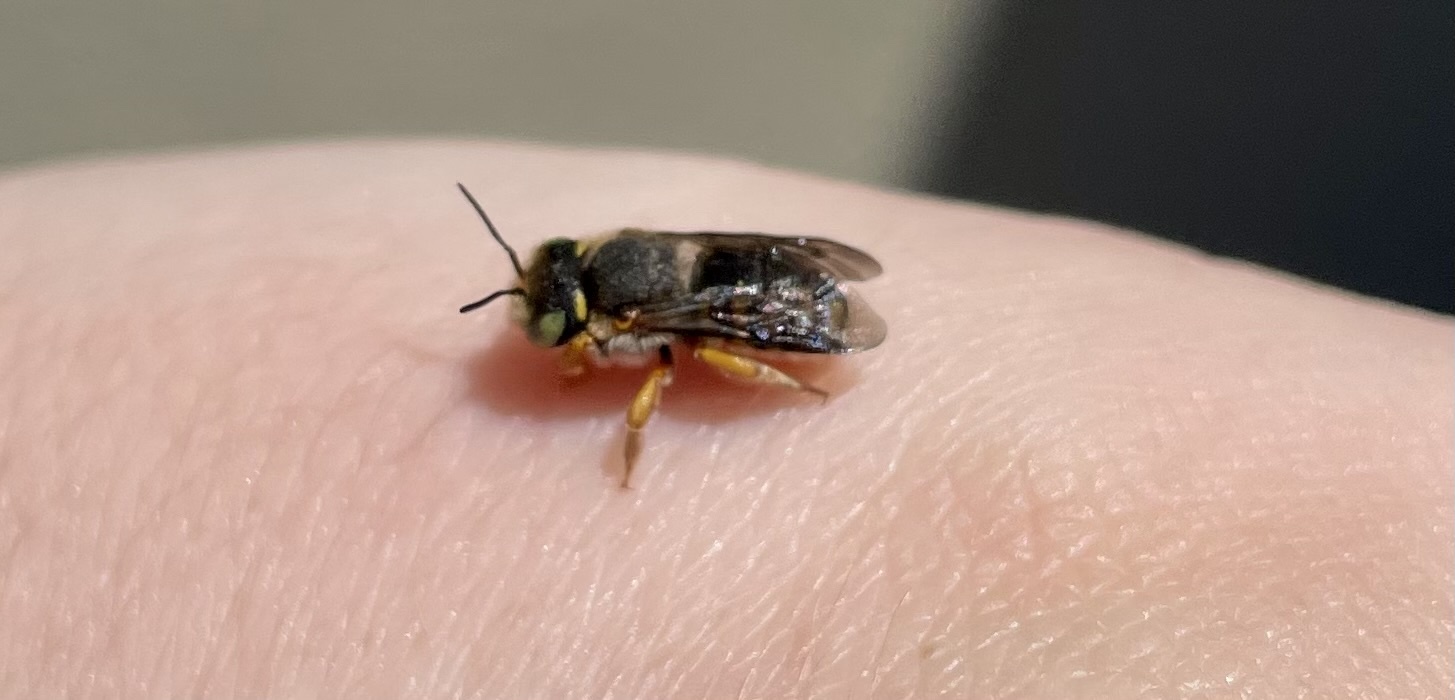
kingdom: Animalia
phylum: Arthropoda
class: Insecta
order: Hymenoptera
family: Megachilidae
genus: Anthidium
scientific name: Anthidium oblongatum
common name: Oblong wool carder bee
